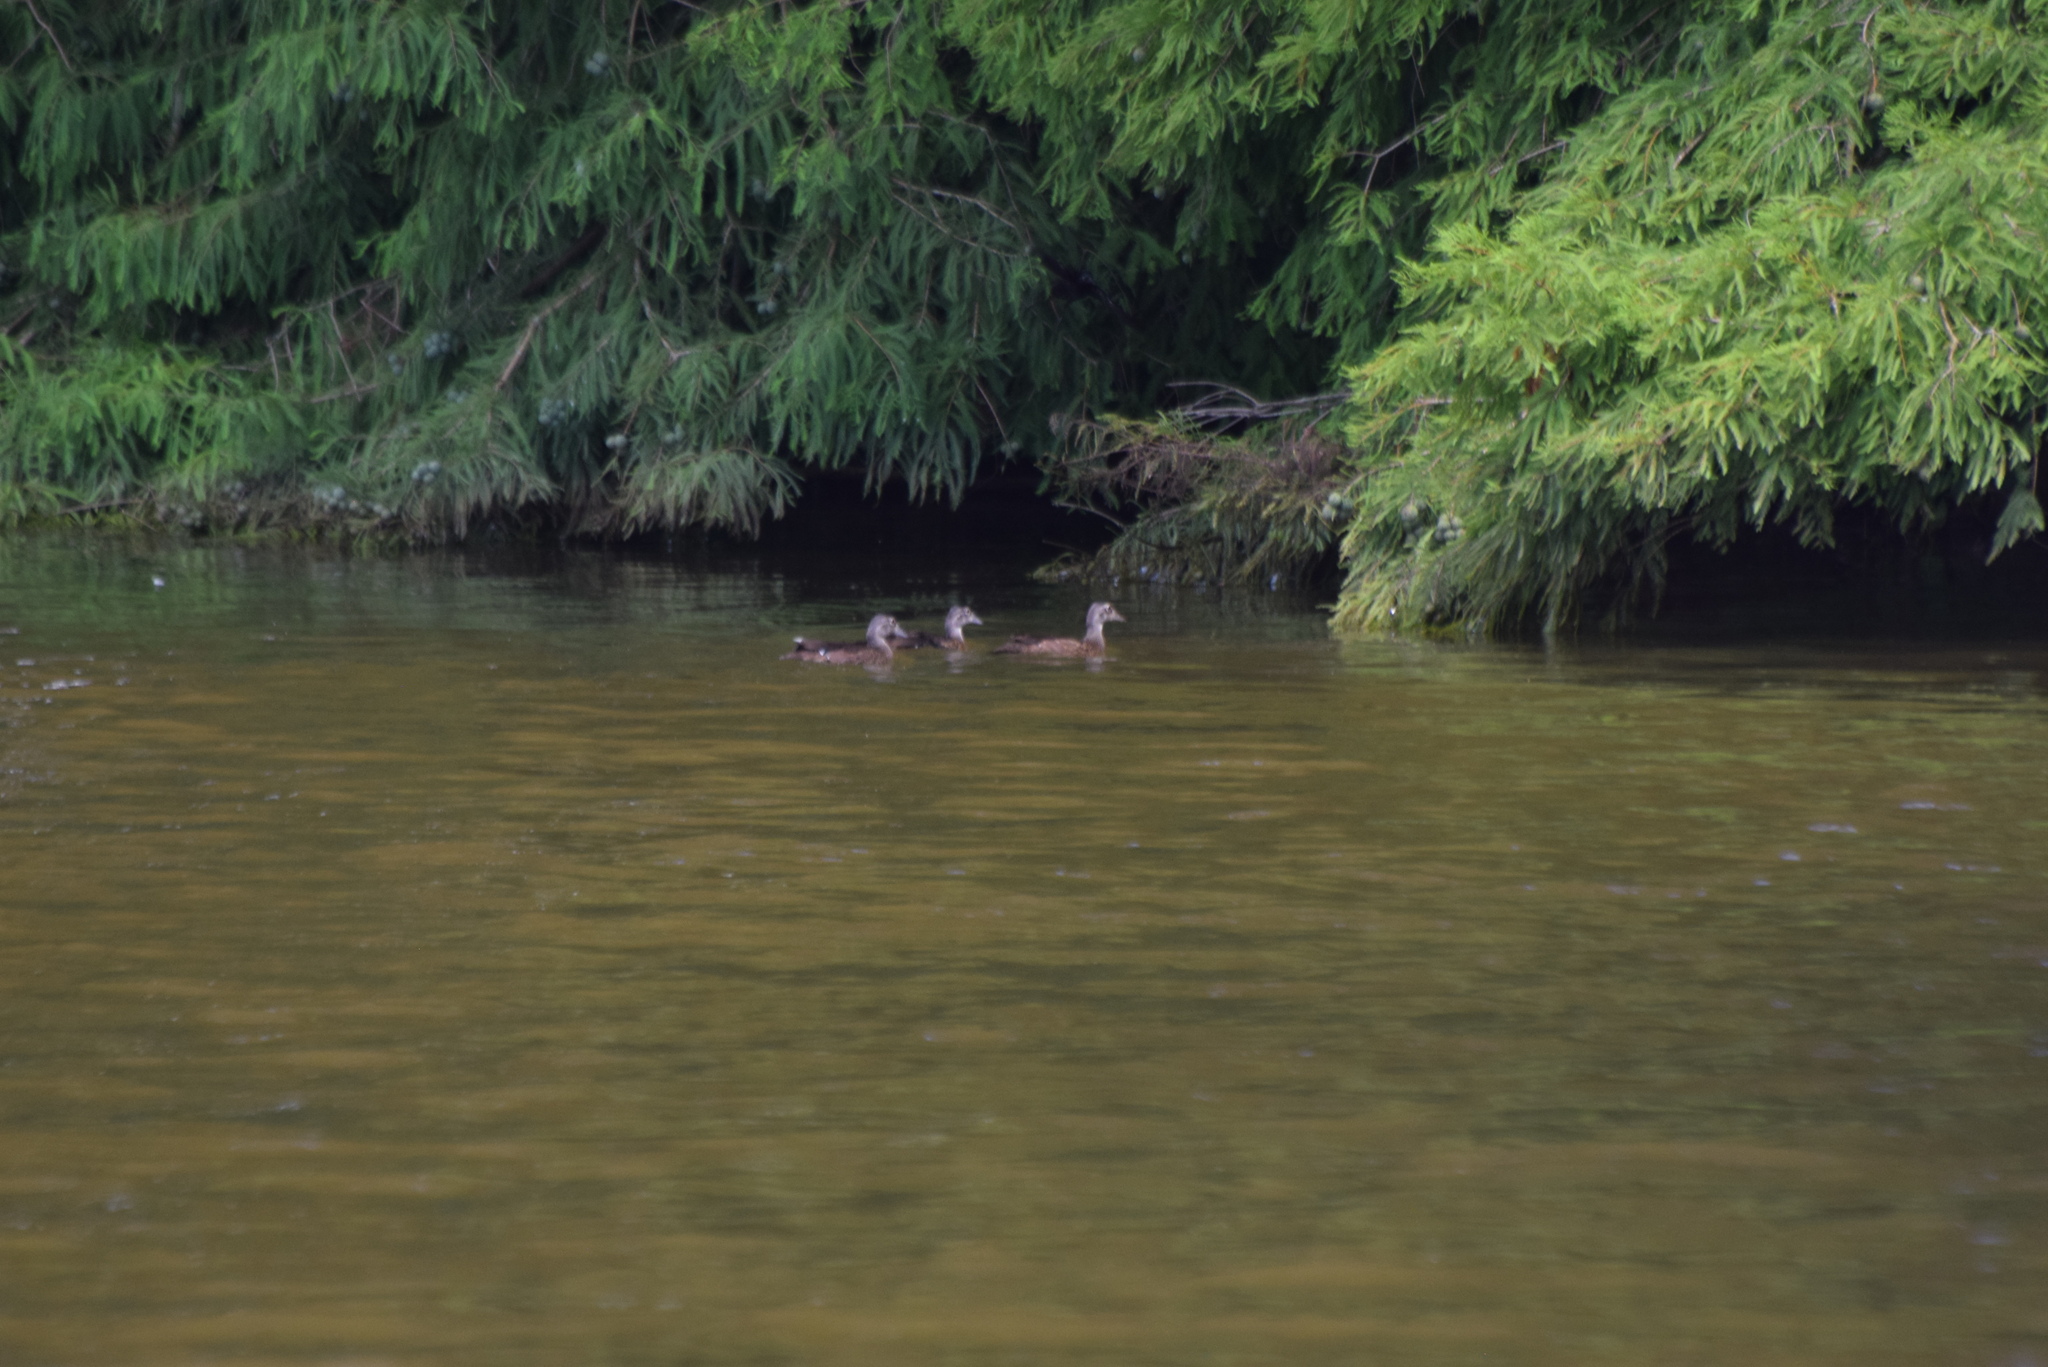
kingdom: Animalia
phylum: Chordata
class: Aves
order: Anseriformes
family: Anatidae
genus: Aix
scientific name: Aix sponsa
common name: Wood duck
